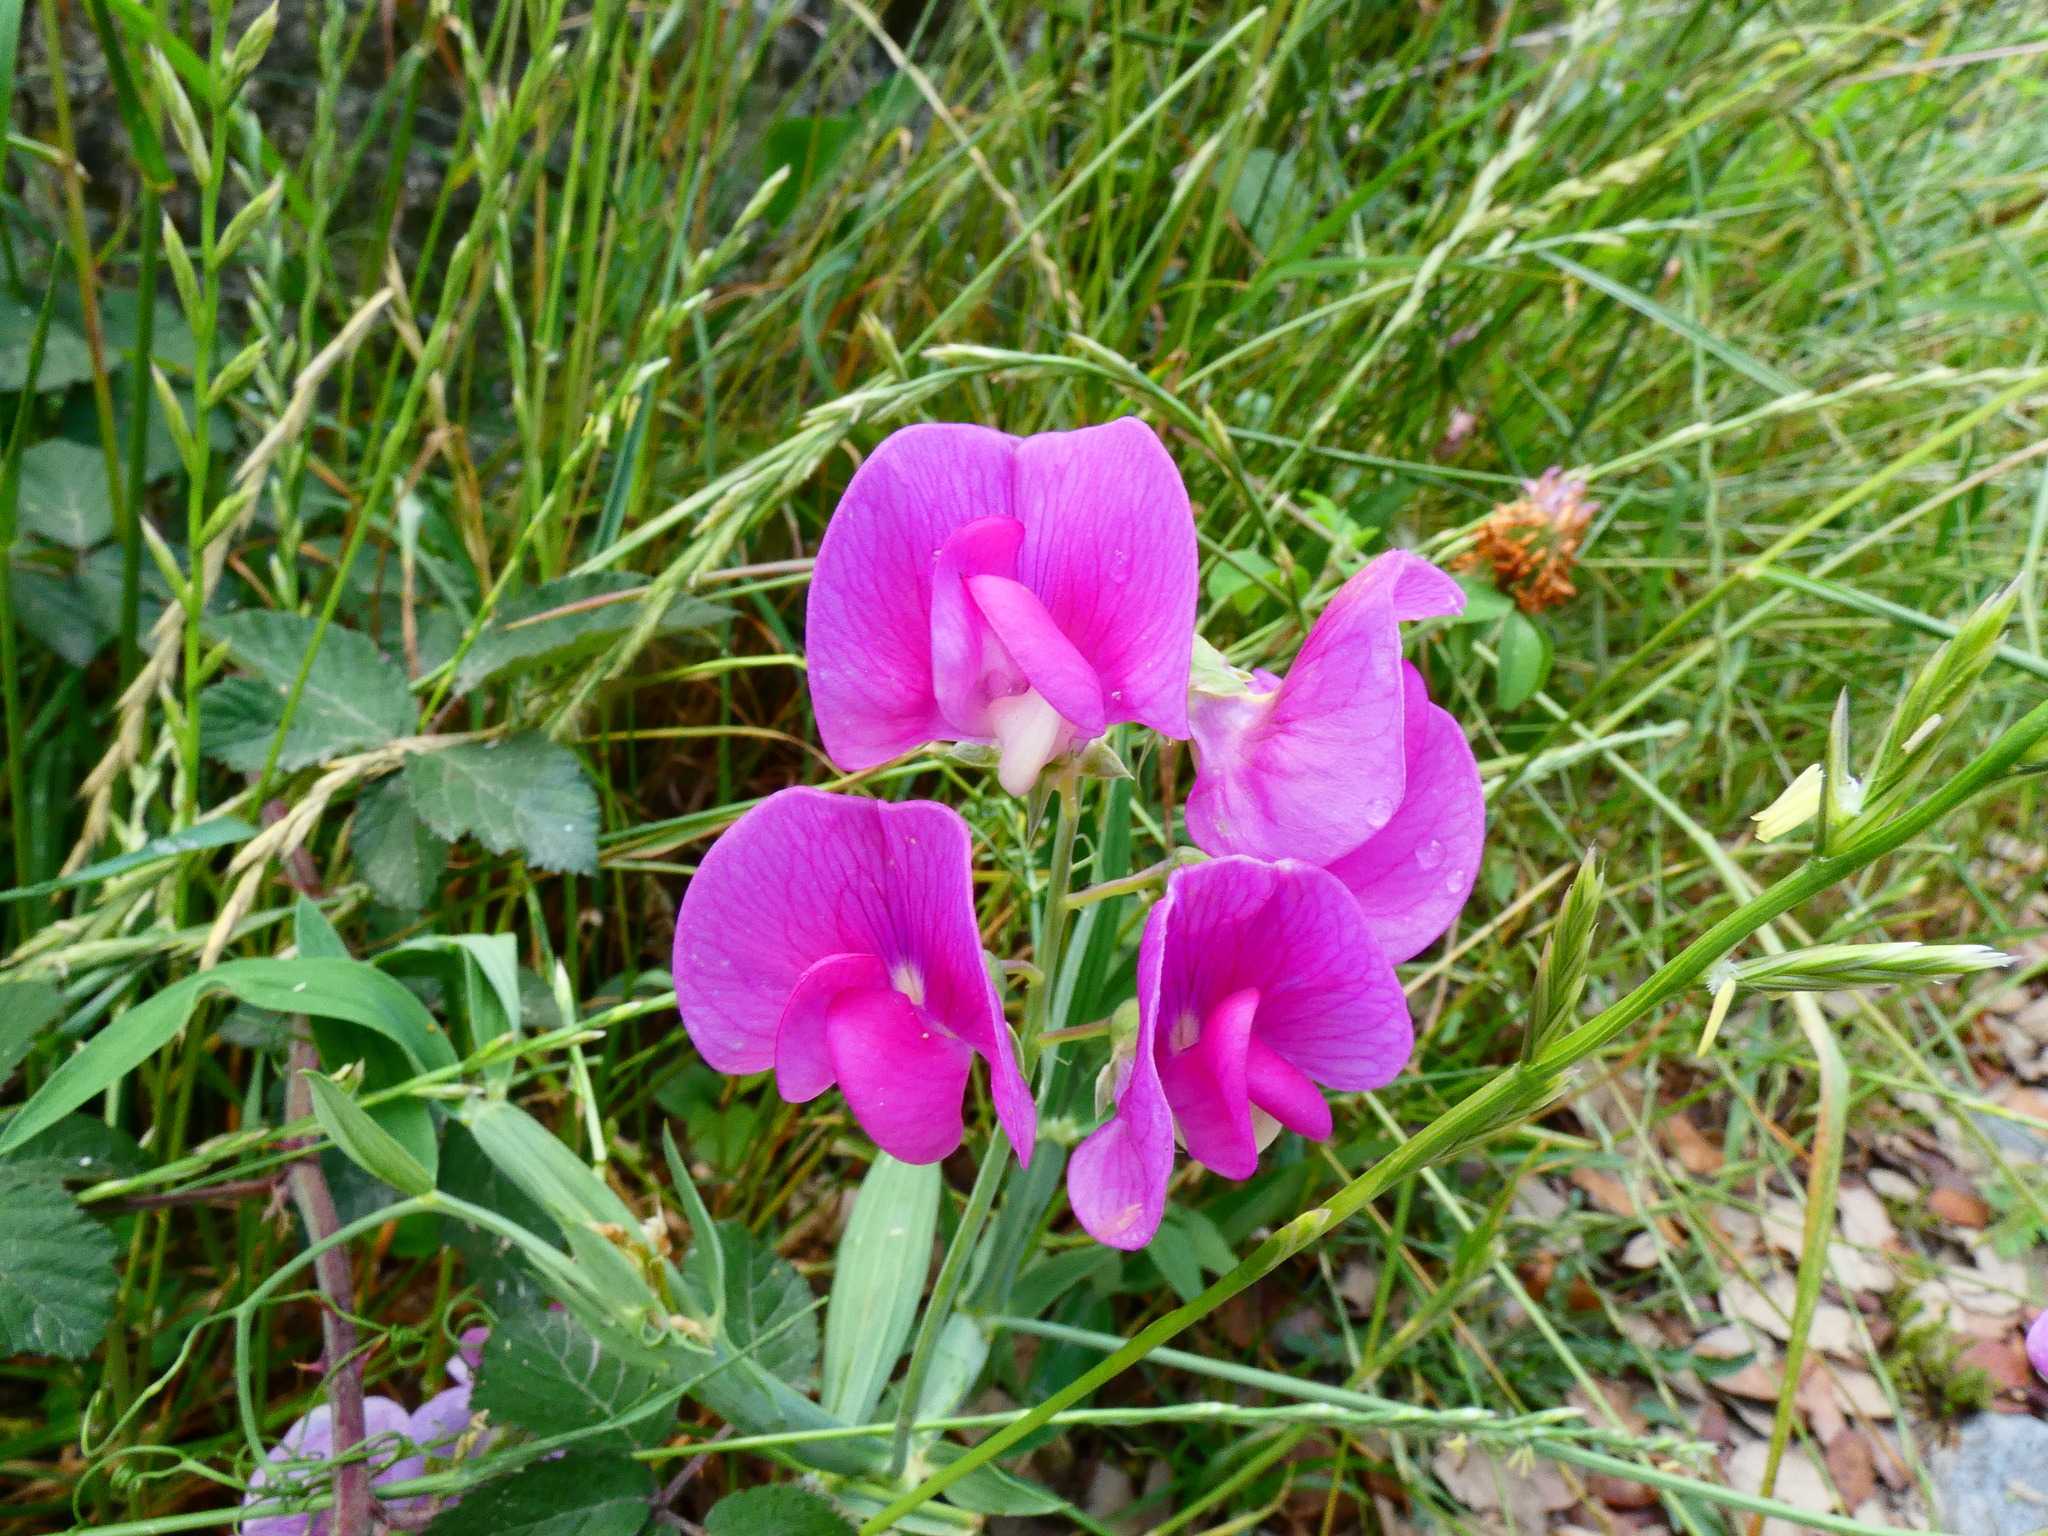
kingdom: Plantae
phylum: Tracheophyta
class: Magnoliopsida
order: Fabales
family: Fabaceae
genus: Lathyrus
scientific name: Lathyrus latifolius
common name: Perennial pea
